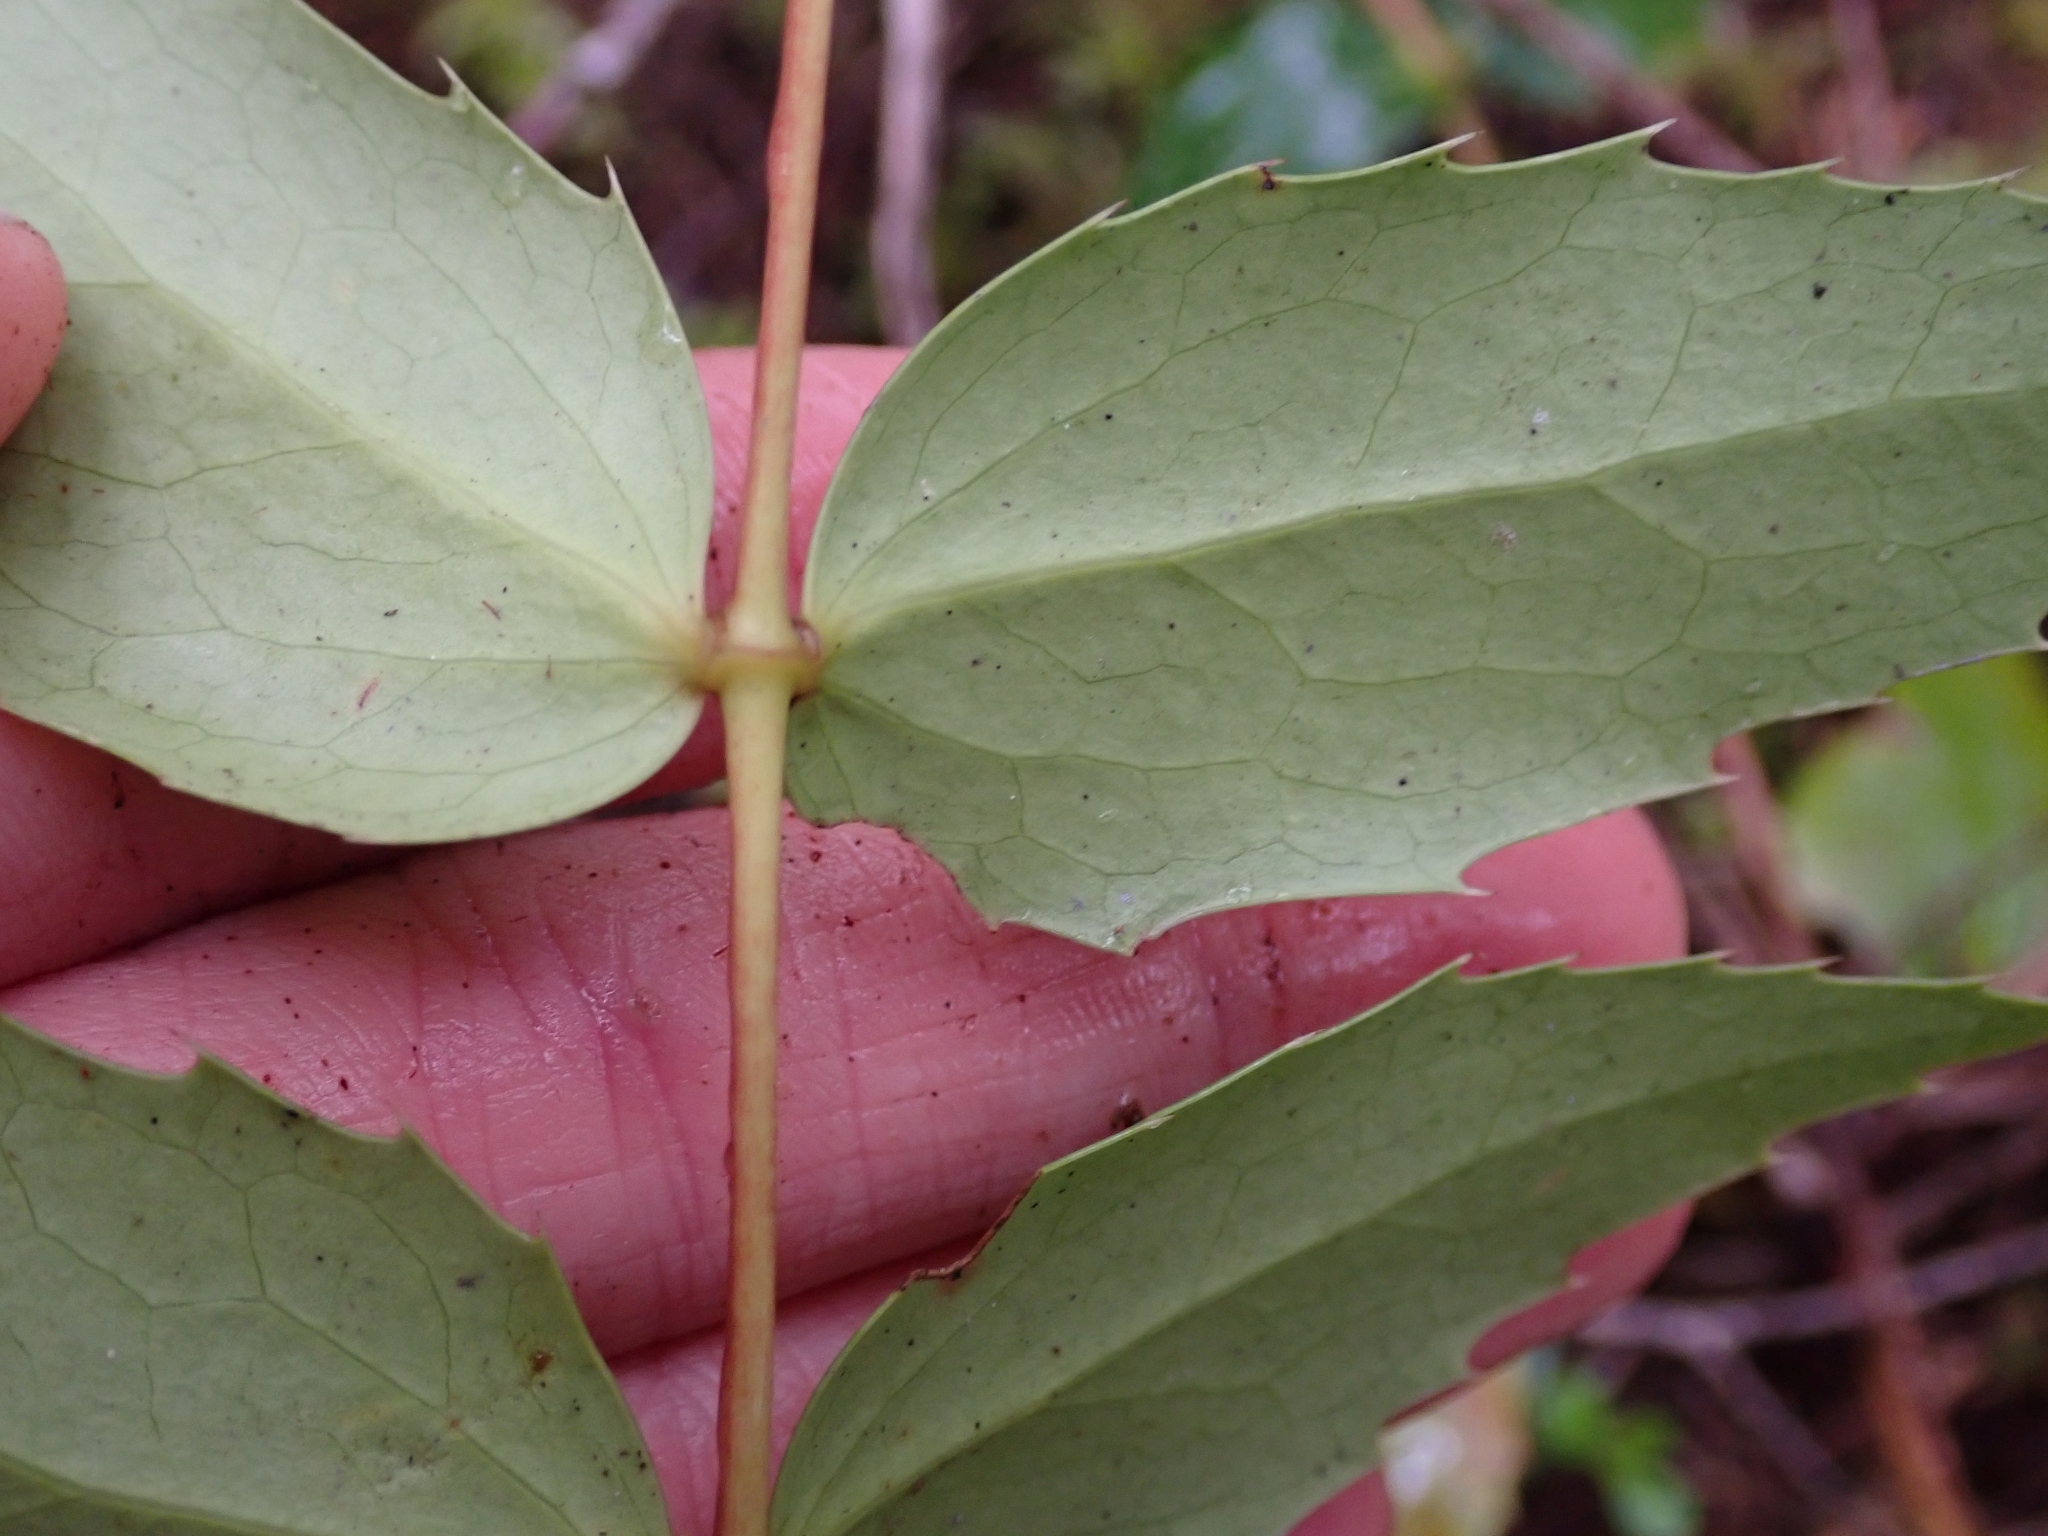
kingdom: Plantae
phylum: Tracheophyta
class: Magnoliopsida
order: Ranunculales
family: Berberidaceae
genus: Mahonia
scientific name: Mahonia nervosa
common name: Cascade oregon-grape
